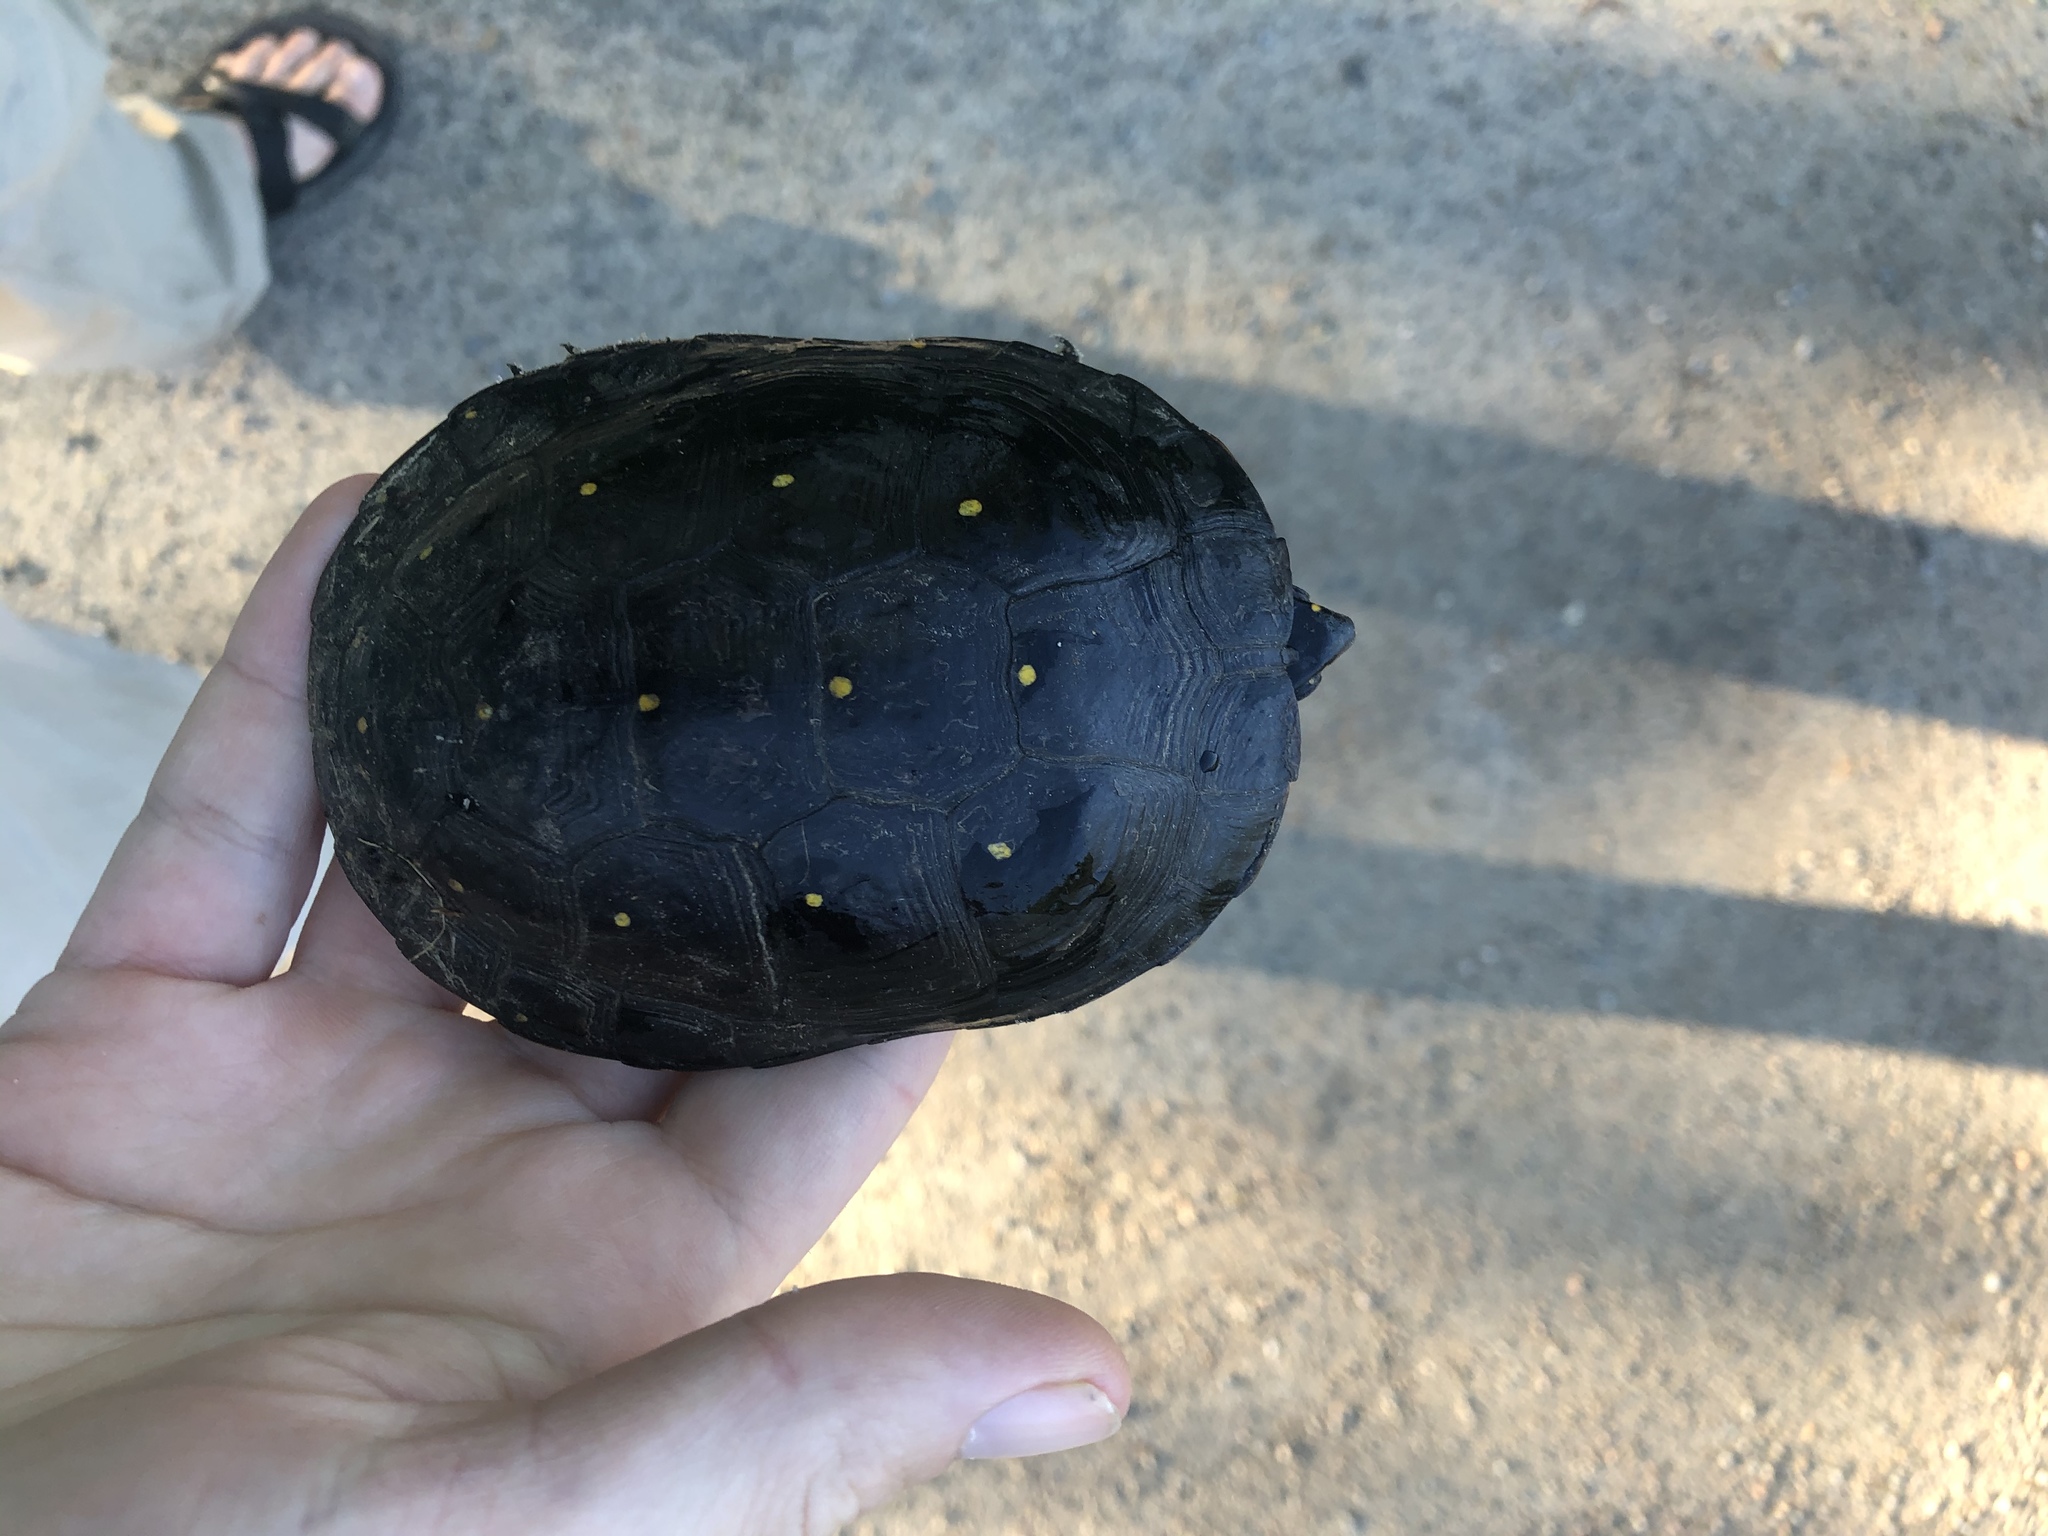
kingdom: Animalia
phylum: Chordata
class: Testudines
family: Emydidae
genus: Clemmys
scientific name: Clemmys guttata
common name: Spotted turtle
